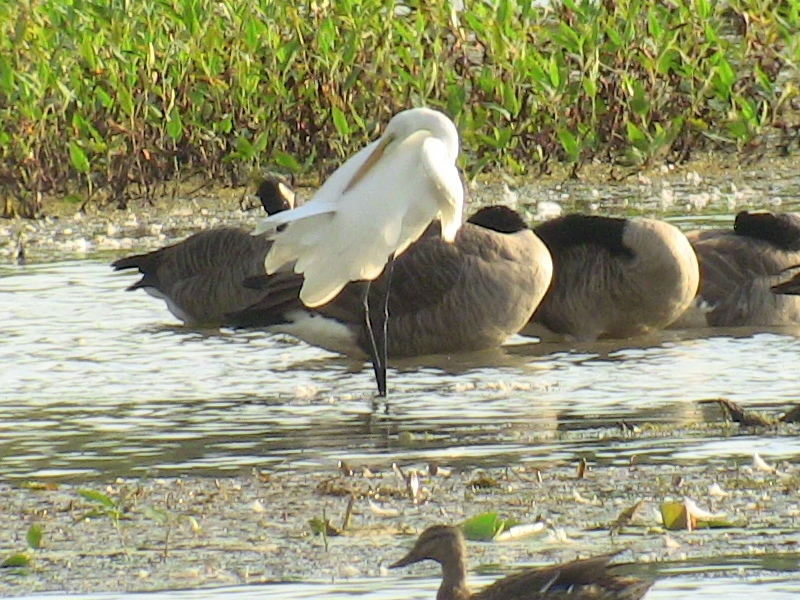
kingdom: Animalia
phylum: Chordata
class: Aves
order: Pelecaniformes
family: Ardeidae
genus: Ardea
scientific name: Ardea alba
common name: Great egret
